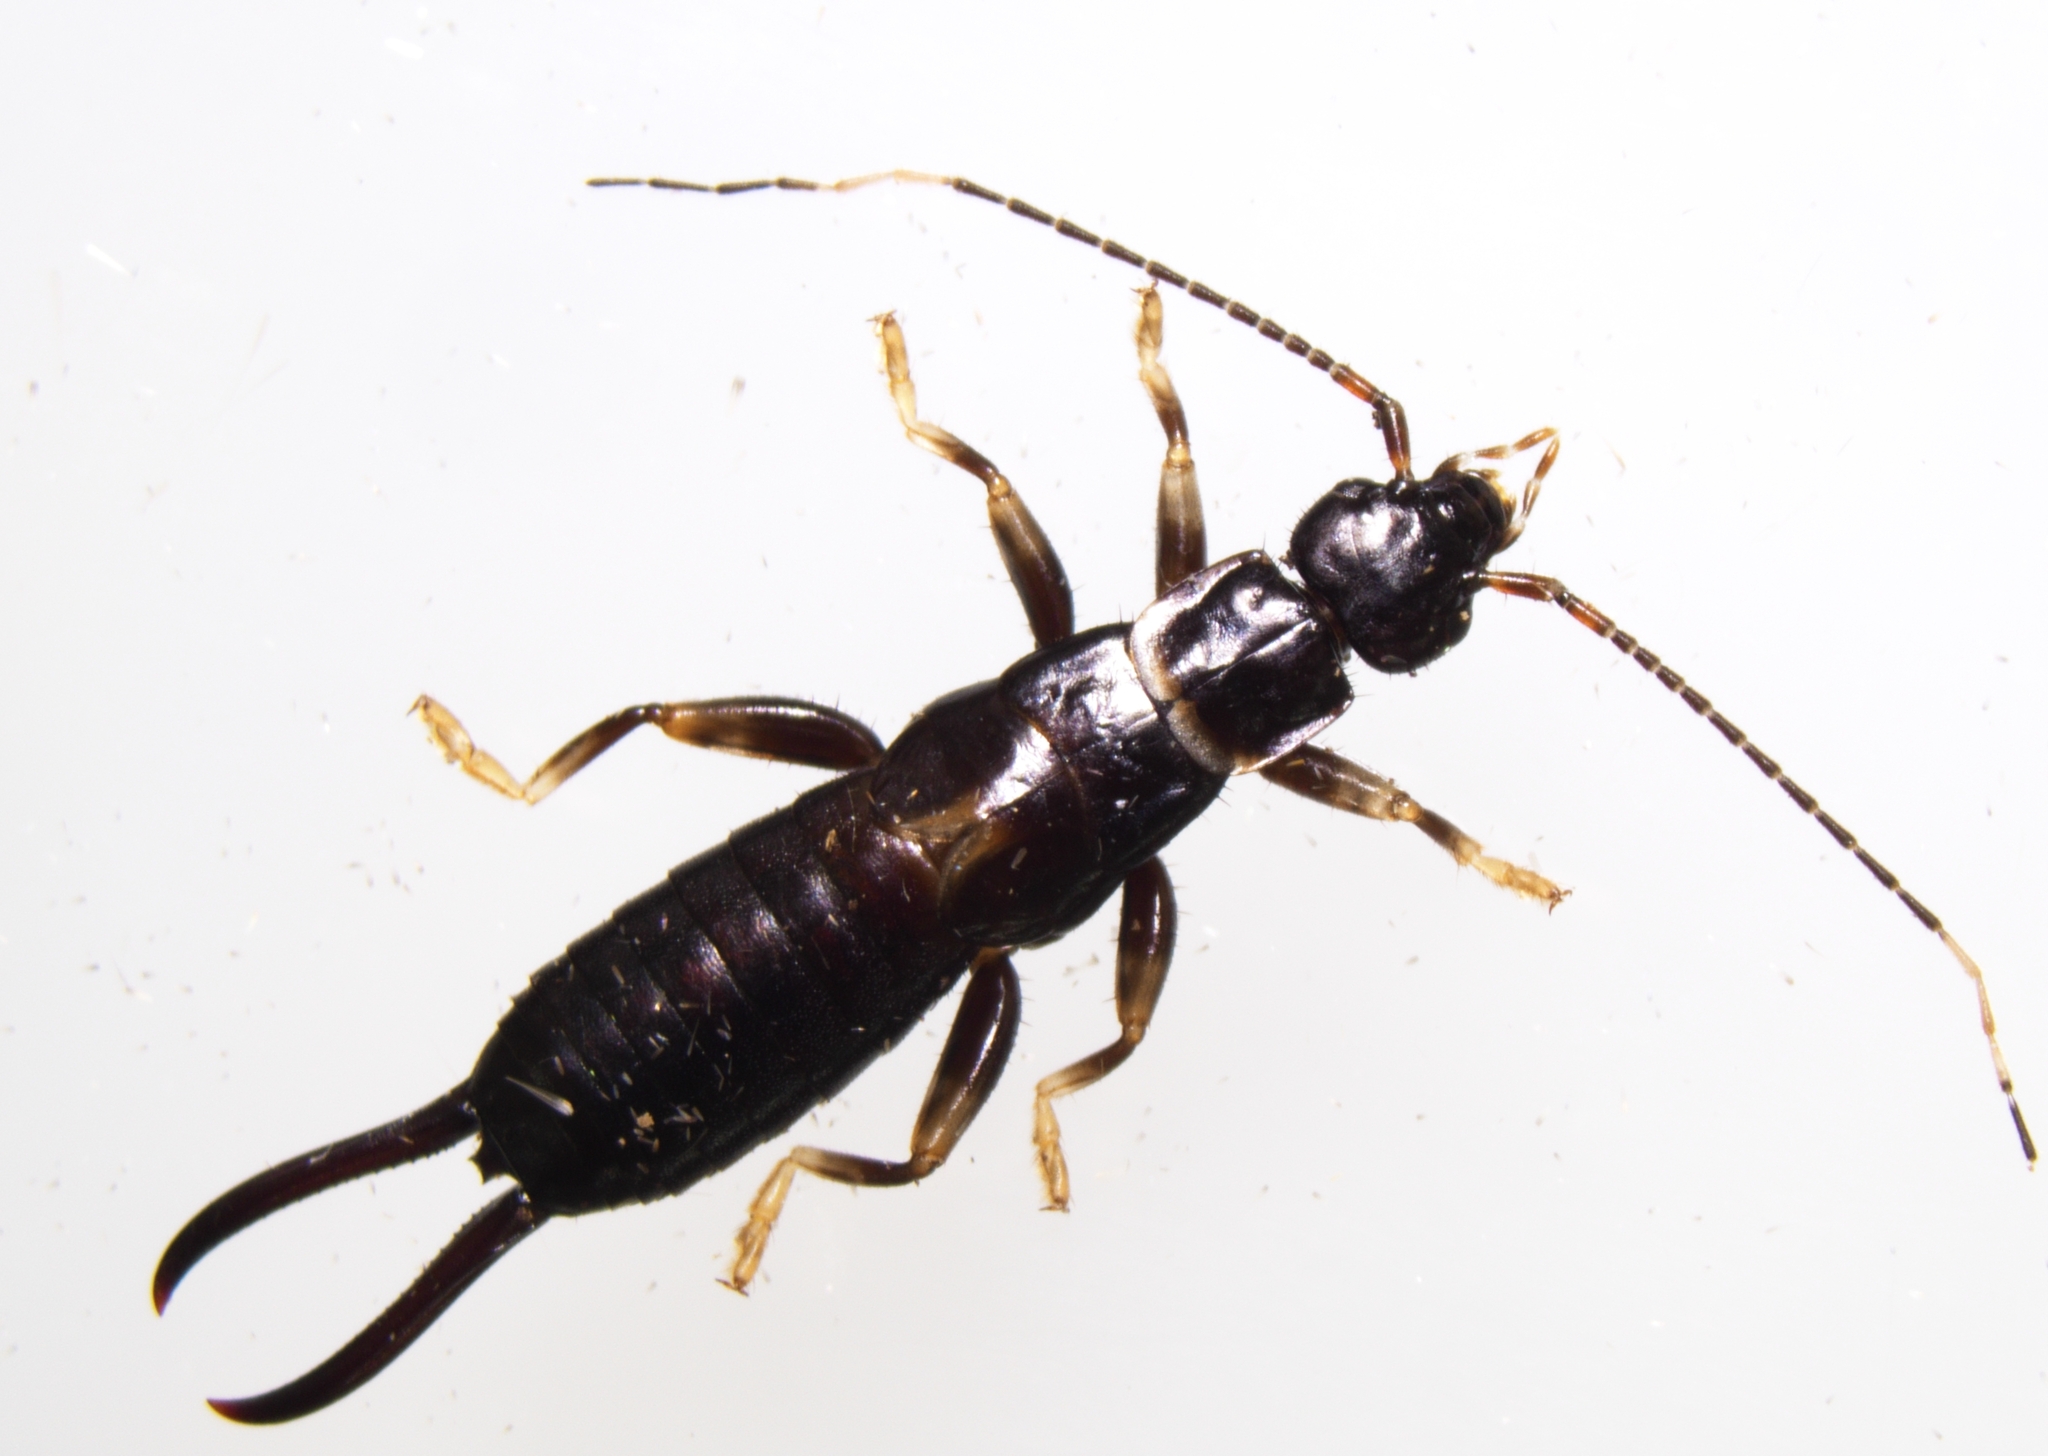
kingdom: Animalia
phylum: Arthropoda
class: Insecta
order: Dermaptera
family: Chelisochidae
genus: Chelisoches
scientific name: Chelisoches morio
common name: Black earwig
